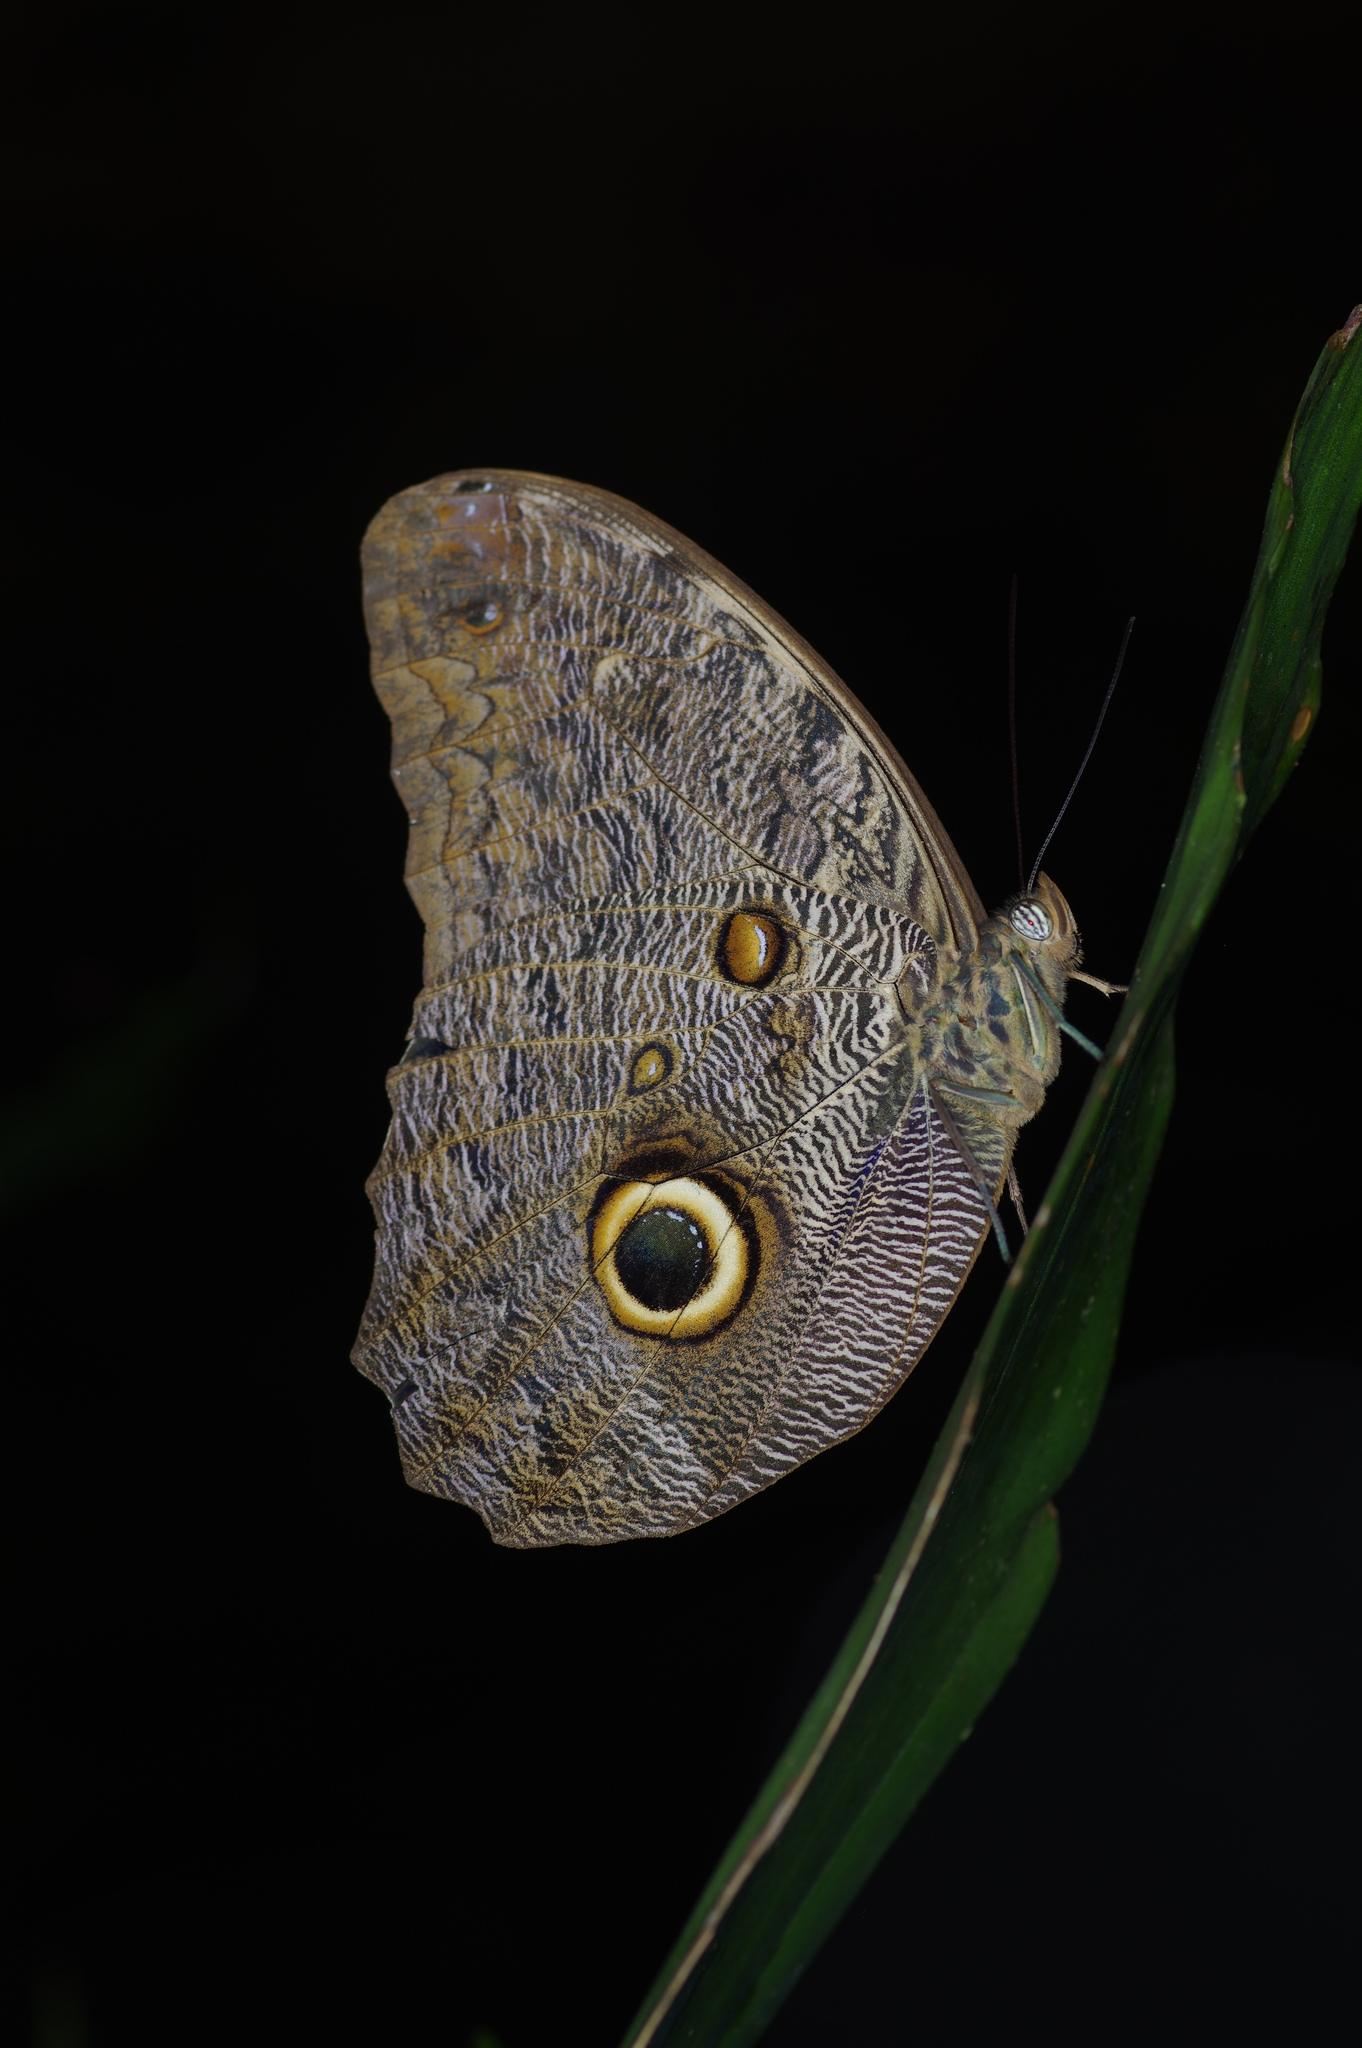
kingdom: Animalia
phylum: Arthropoda
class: Insecta
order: Lepidoptera
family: Nymphalidae
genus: Caligo
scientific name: Caligo eurilochus
